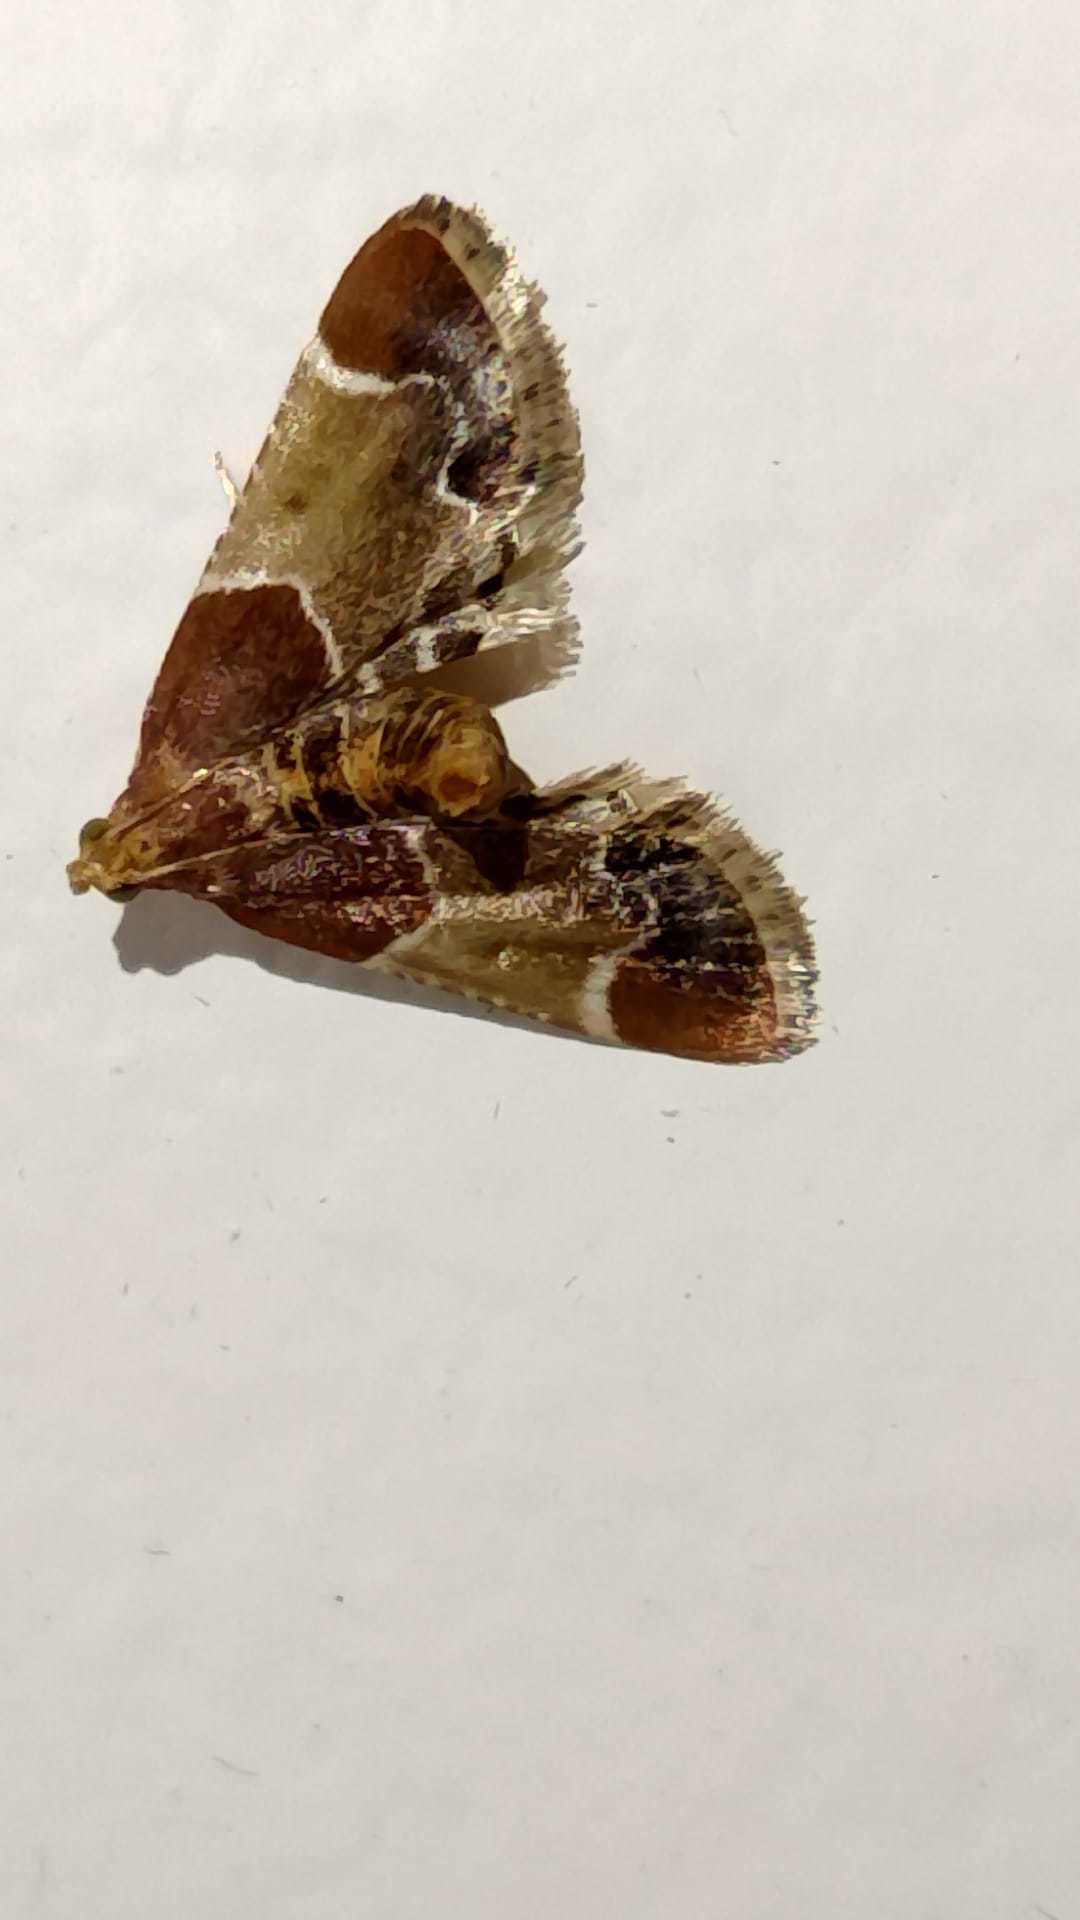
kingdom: Animalia
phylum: Arthropoda
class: Insecta
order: Lepidoptera
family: Pyralidae
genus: Pyralis
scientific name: Pyralis farinalis
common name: Meal moth
